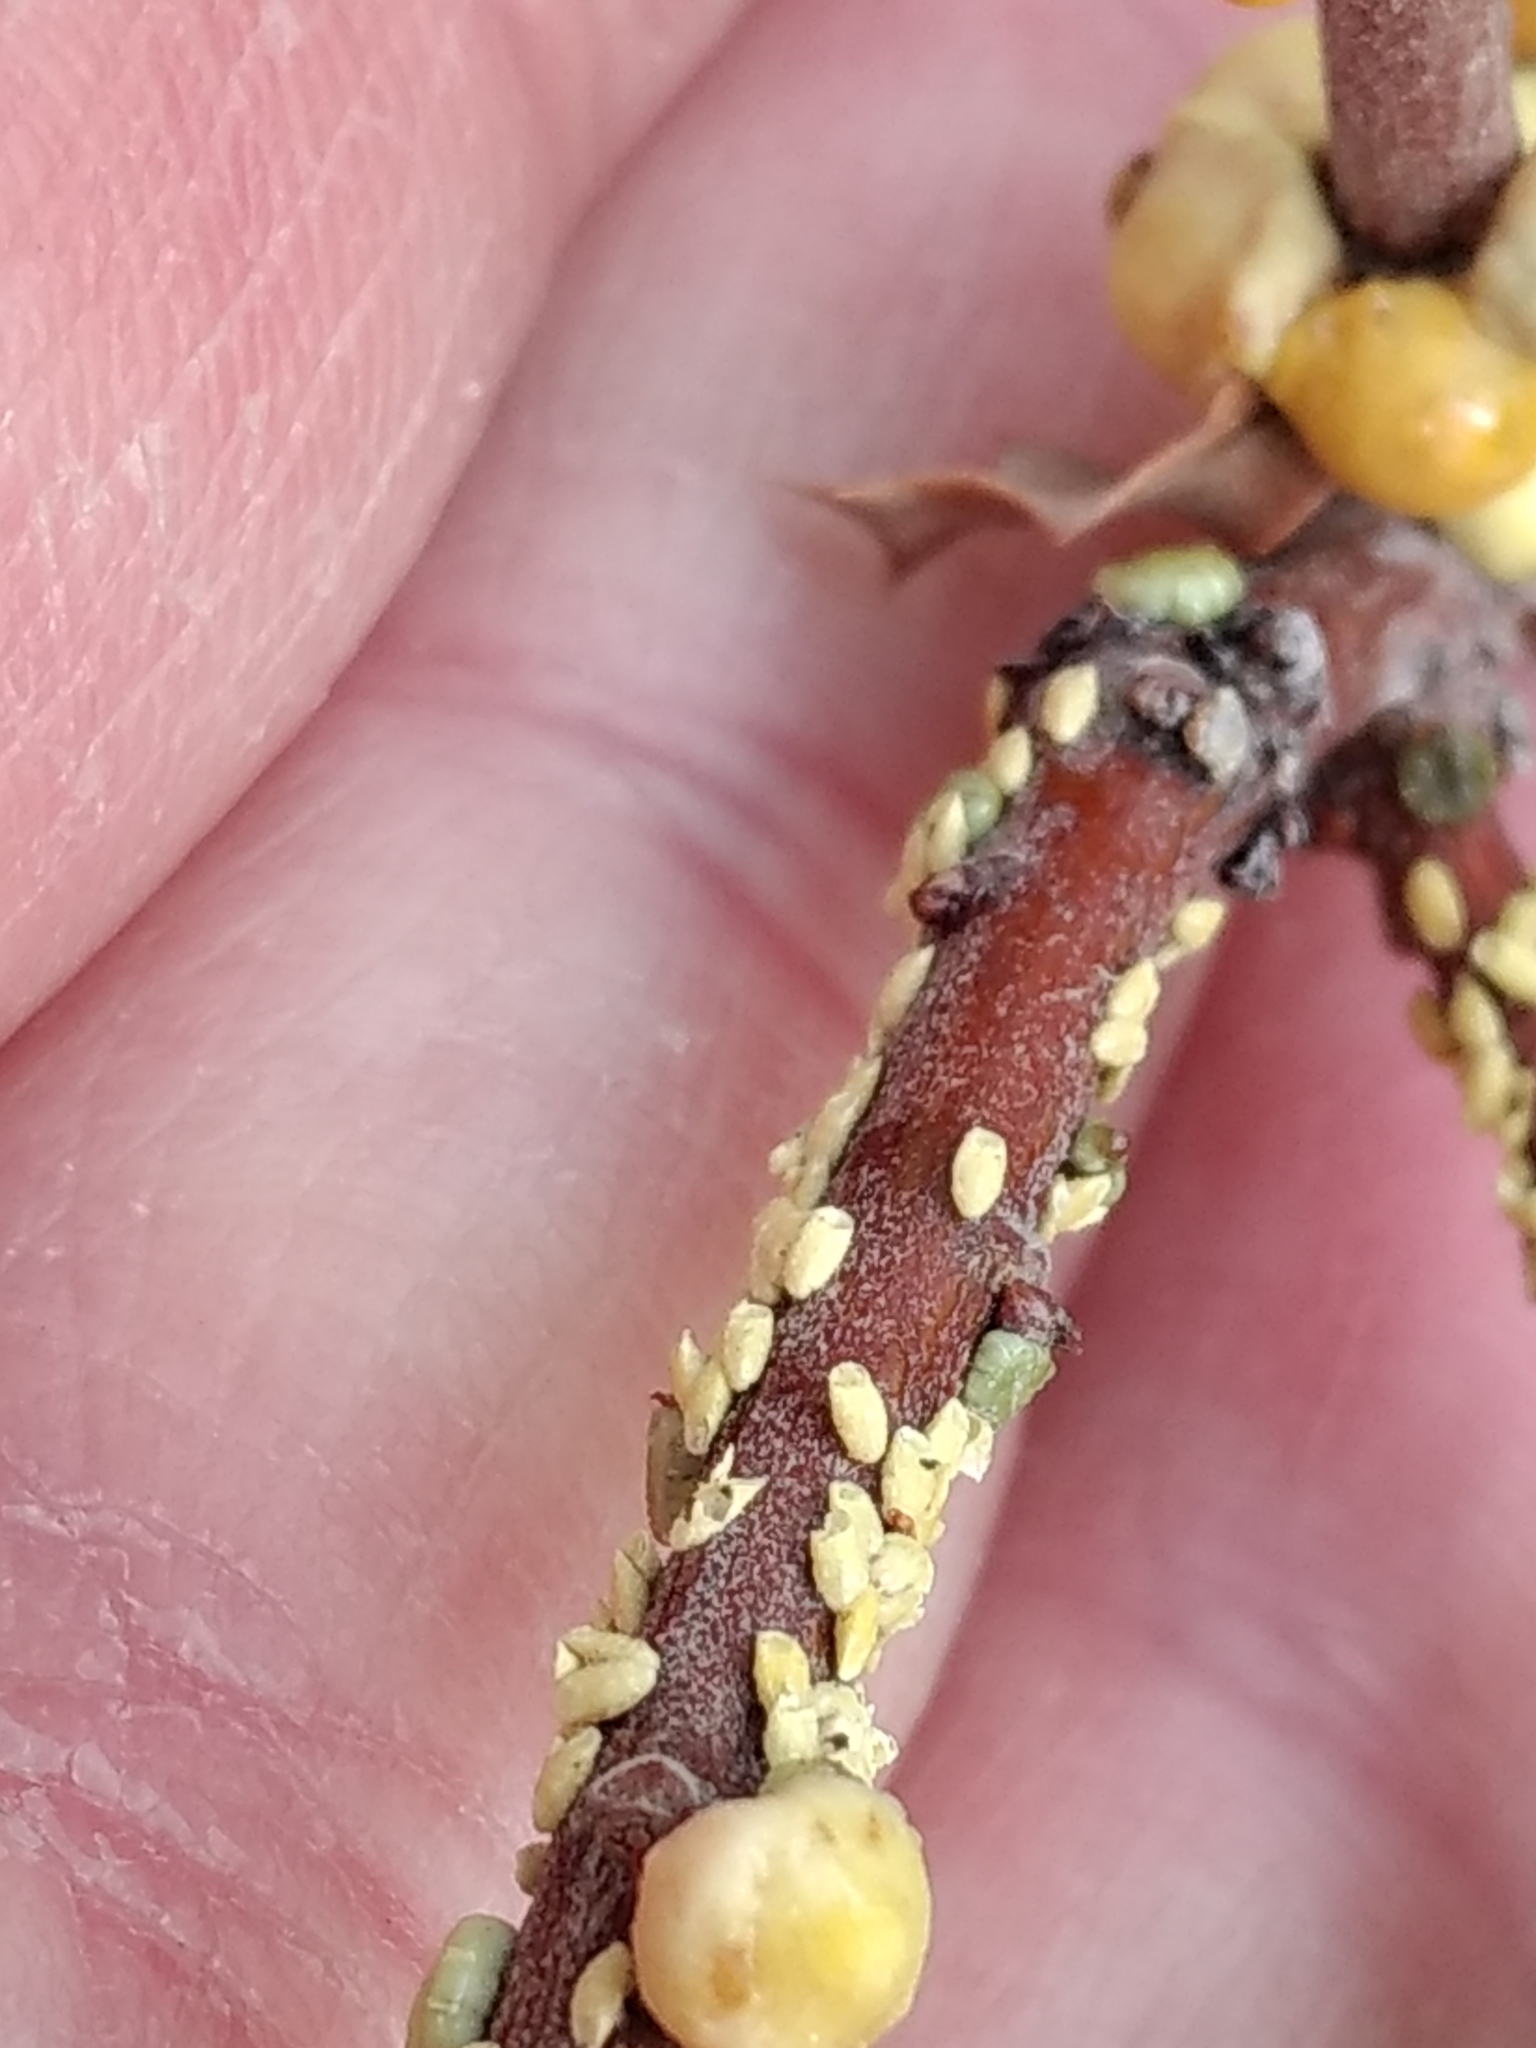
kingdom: Animalia
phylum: Arthropoda
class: Insecta
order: Hemiptera
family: Cerococcidae
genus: Cerococcus
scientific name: Cerococcus quercus
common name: Oak cerococcus
